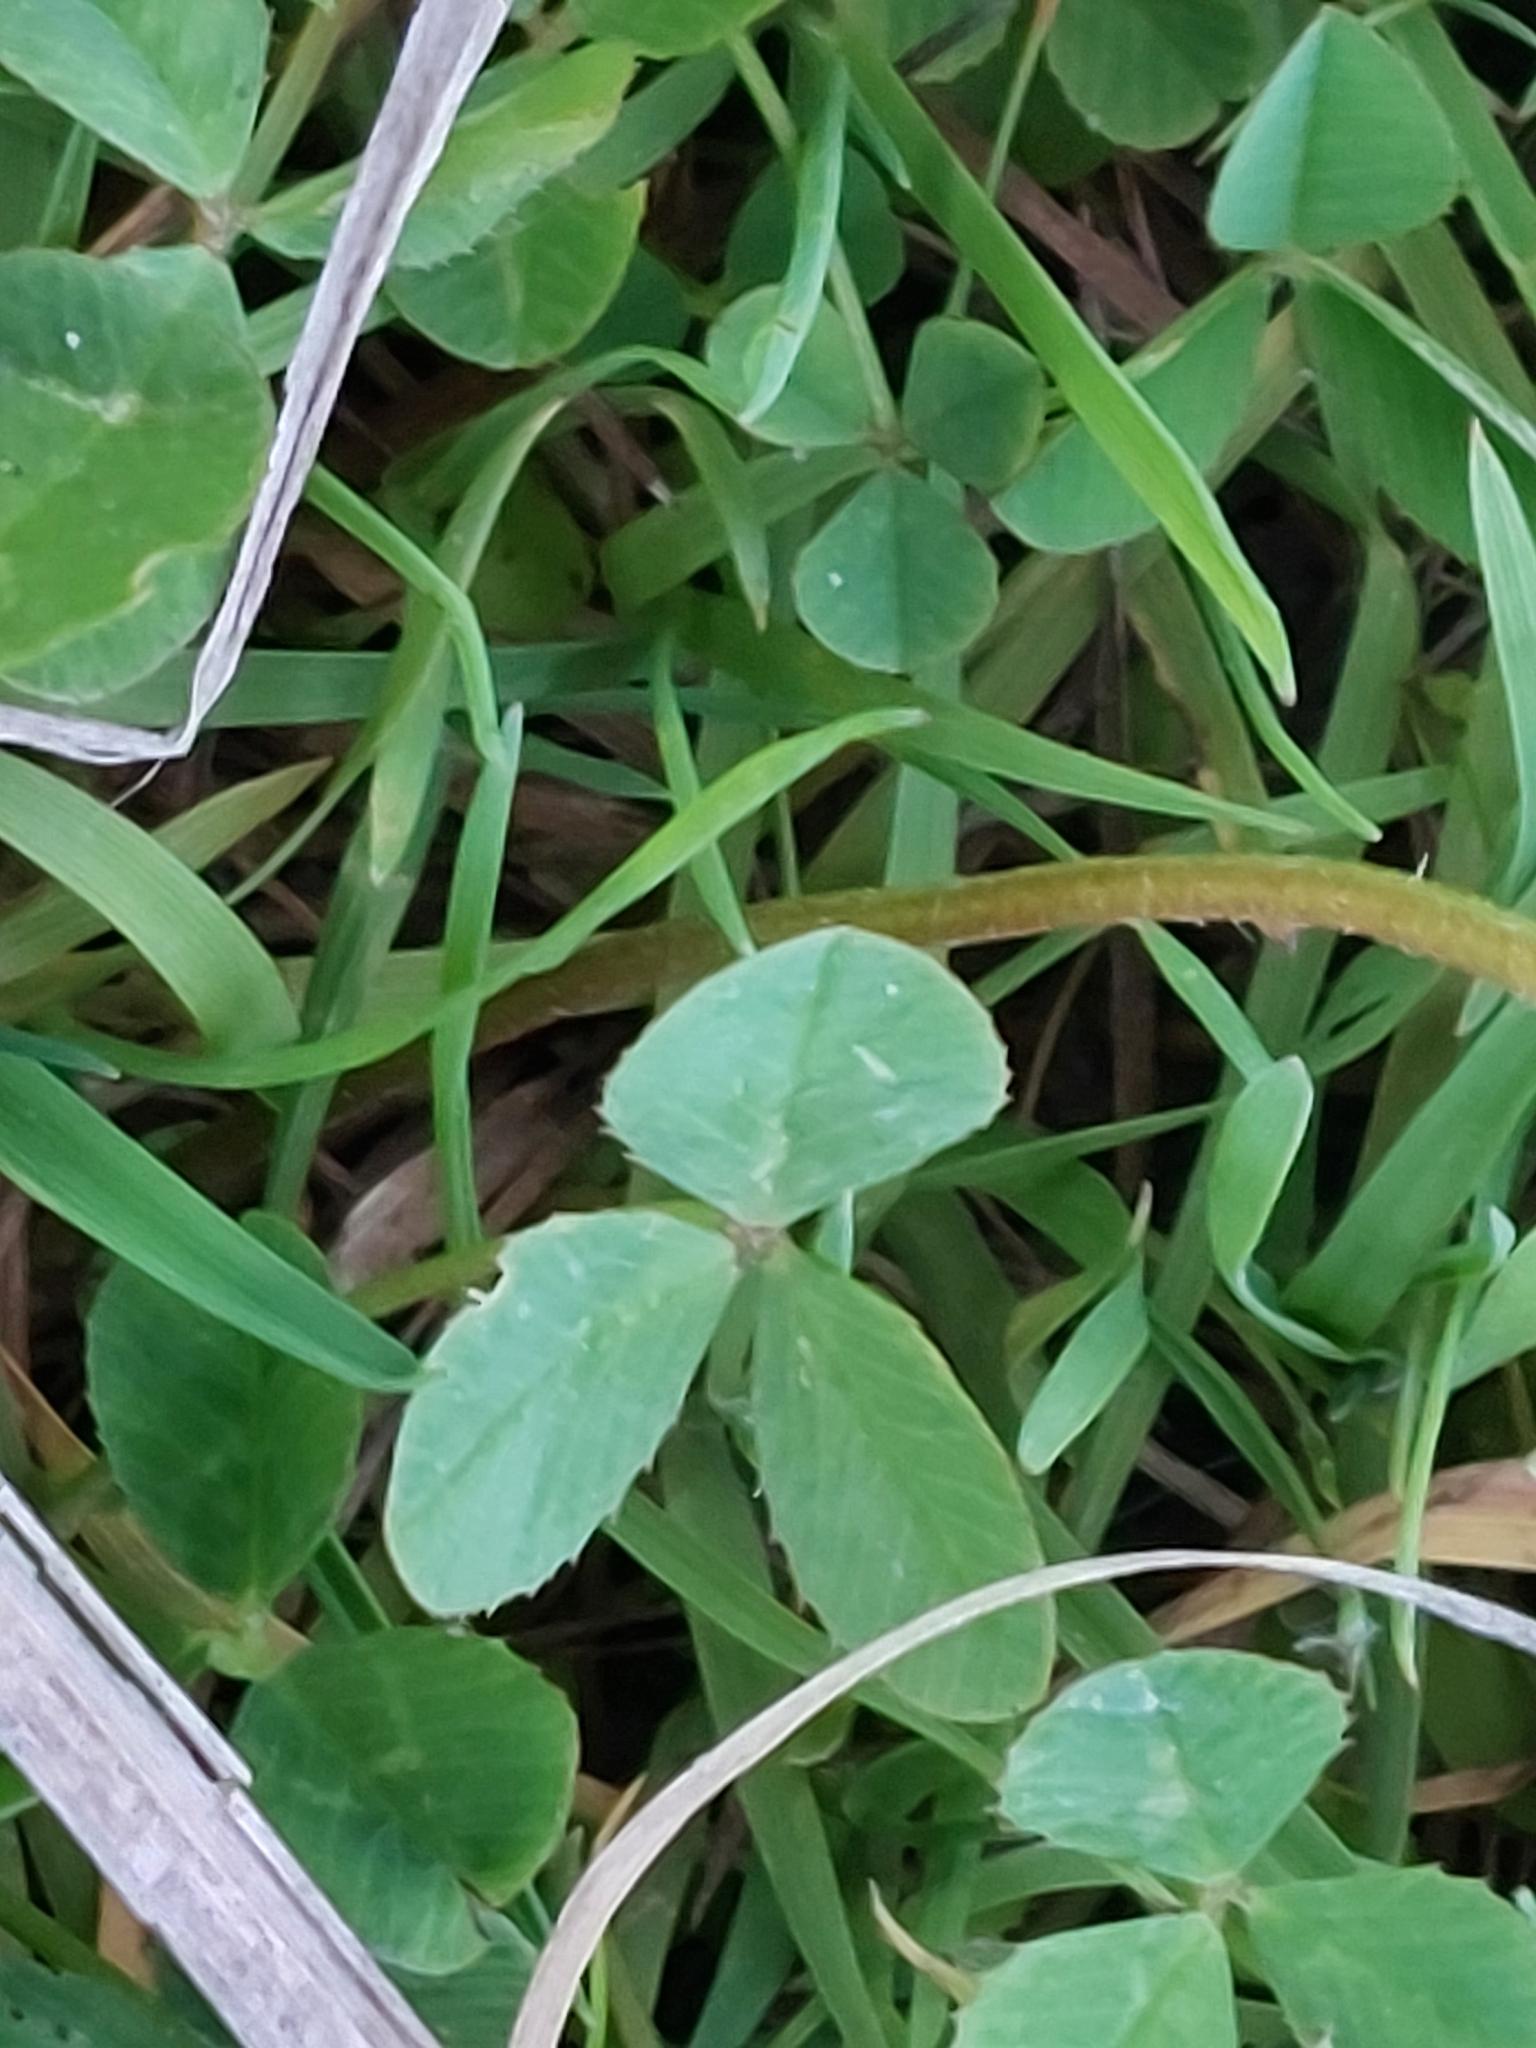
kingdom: Plantae
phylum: Tracheophyta
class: Magnoliopsida
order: Fabales
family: Fabaceae
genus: Trifolium
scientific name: Trifolium repens
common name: White clover
